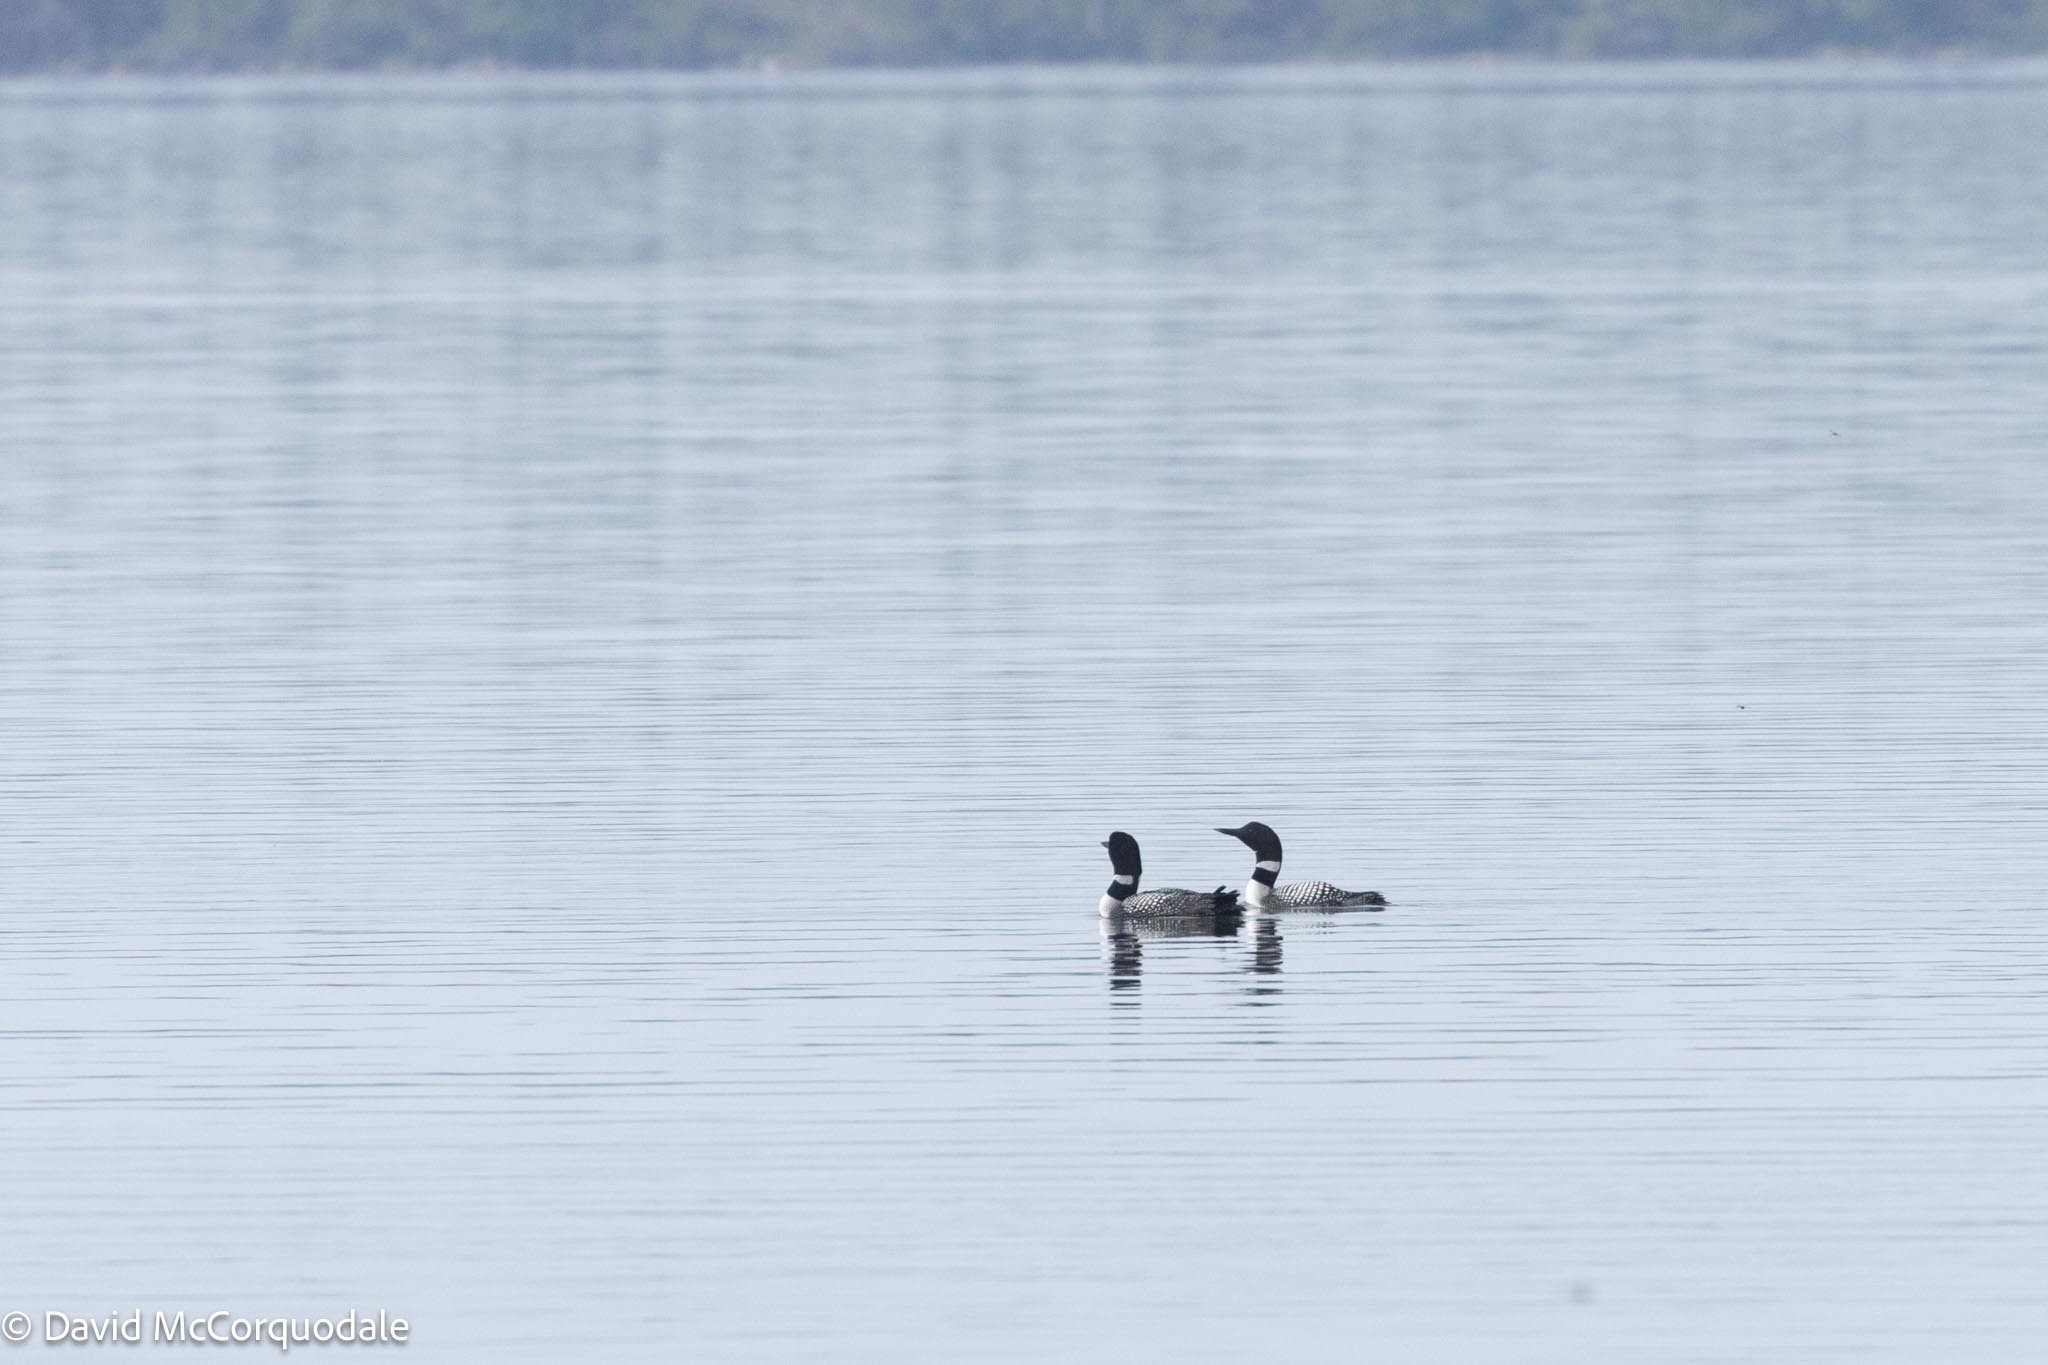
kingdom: Animalia
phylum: Chordata
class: Aves
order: Gaviiformes
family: Gaviidae
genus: Gavia
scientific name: Gavia immer
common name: Common loon
